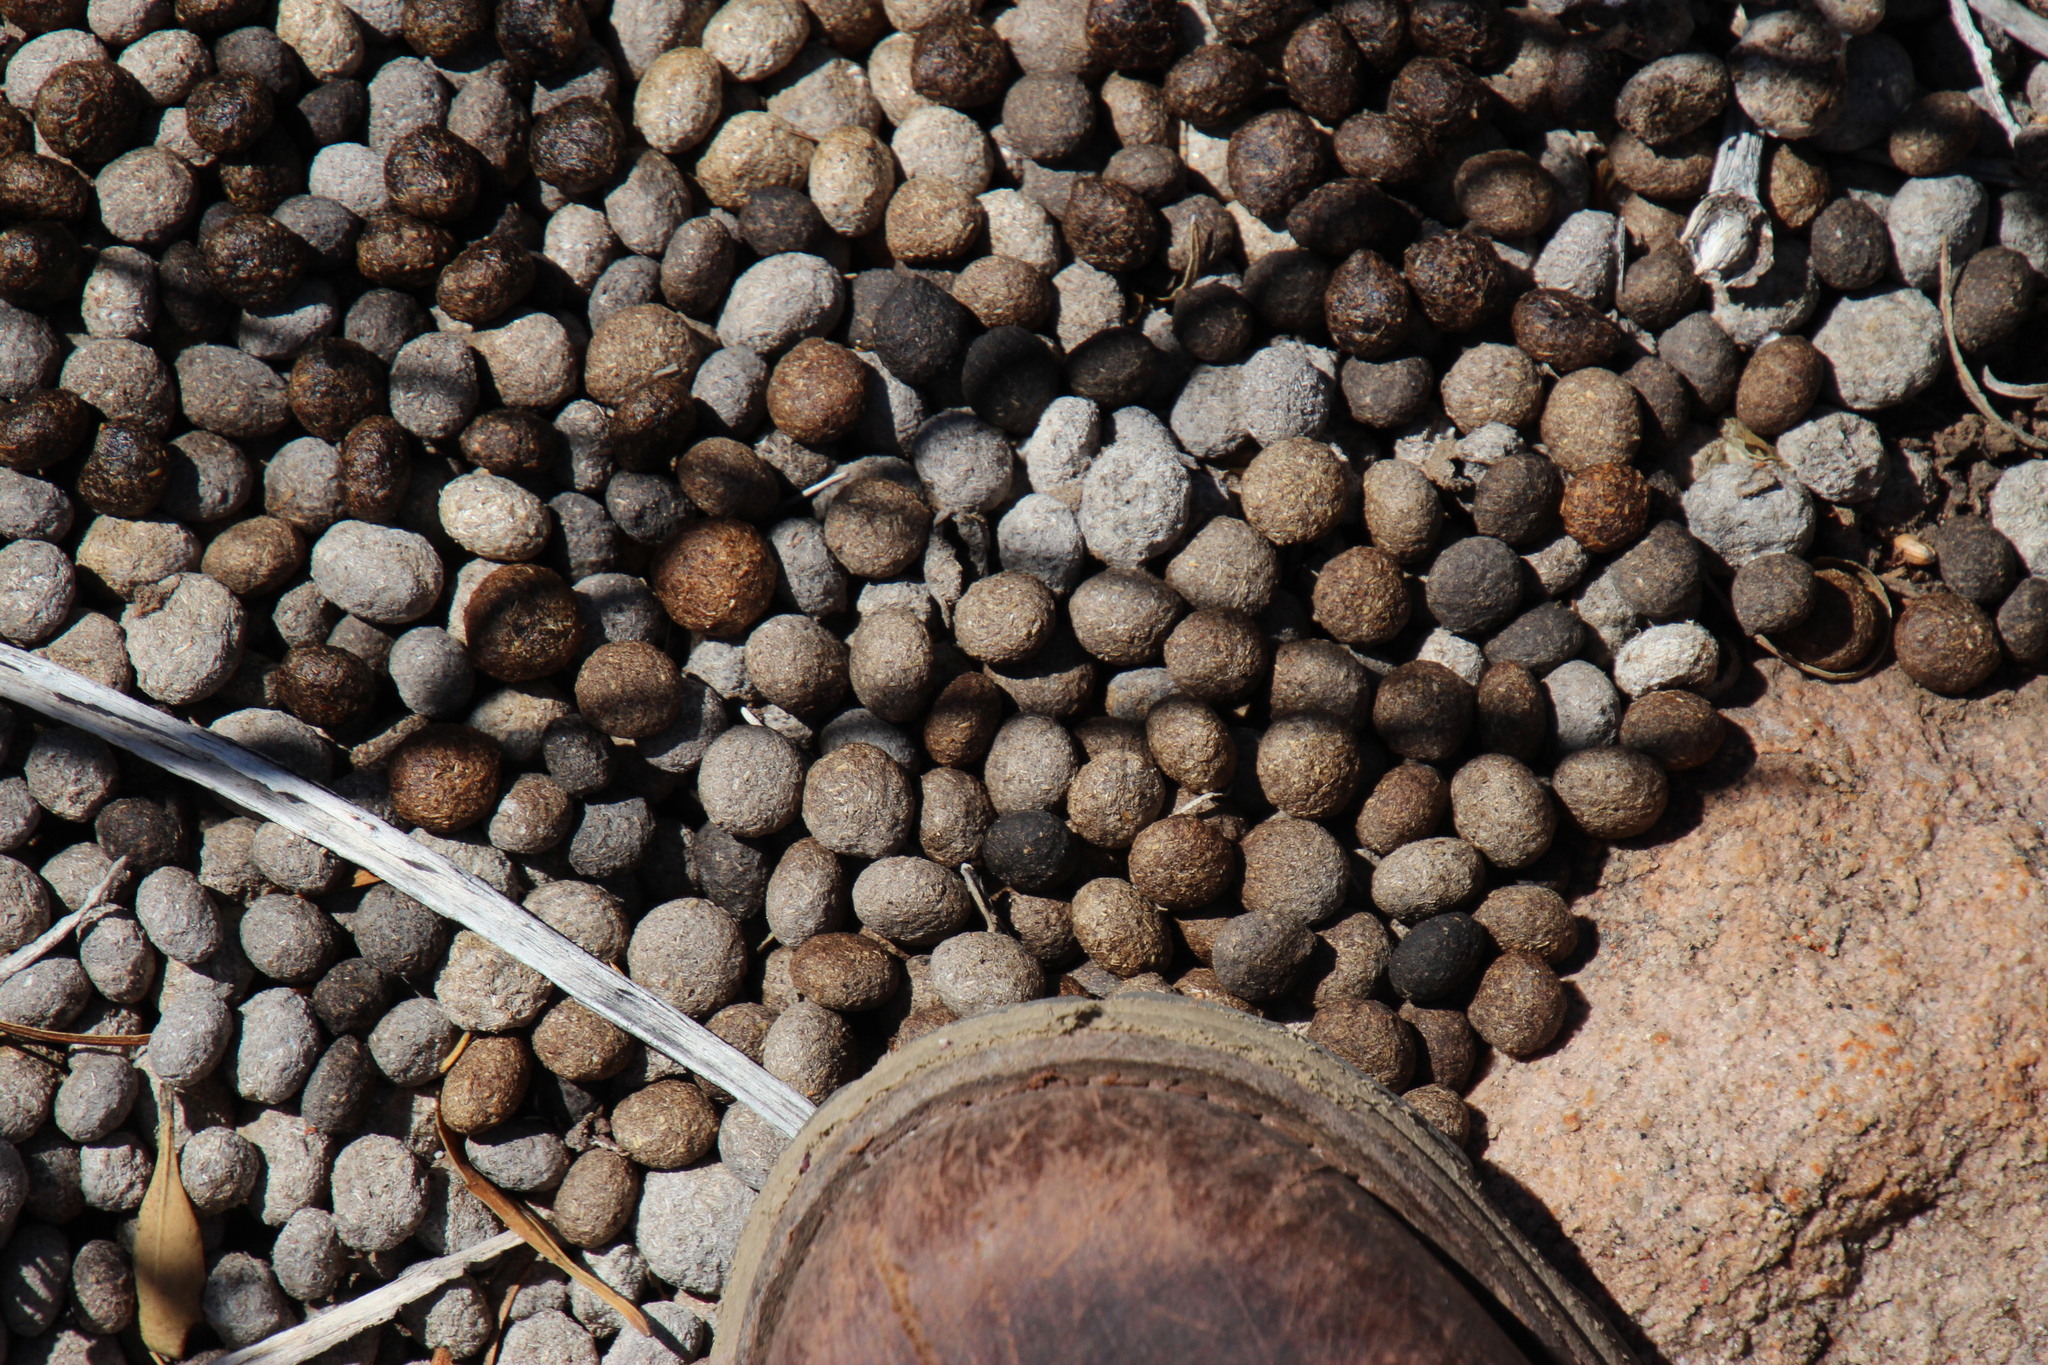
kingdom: Animalia
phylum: Chordata
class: Mammalia
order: Lagomorpha
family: Leporidae
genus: Pronolagus
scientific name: Pronolagus rupestris
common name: Smith's red rock hare
